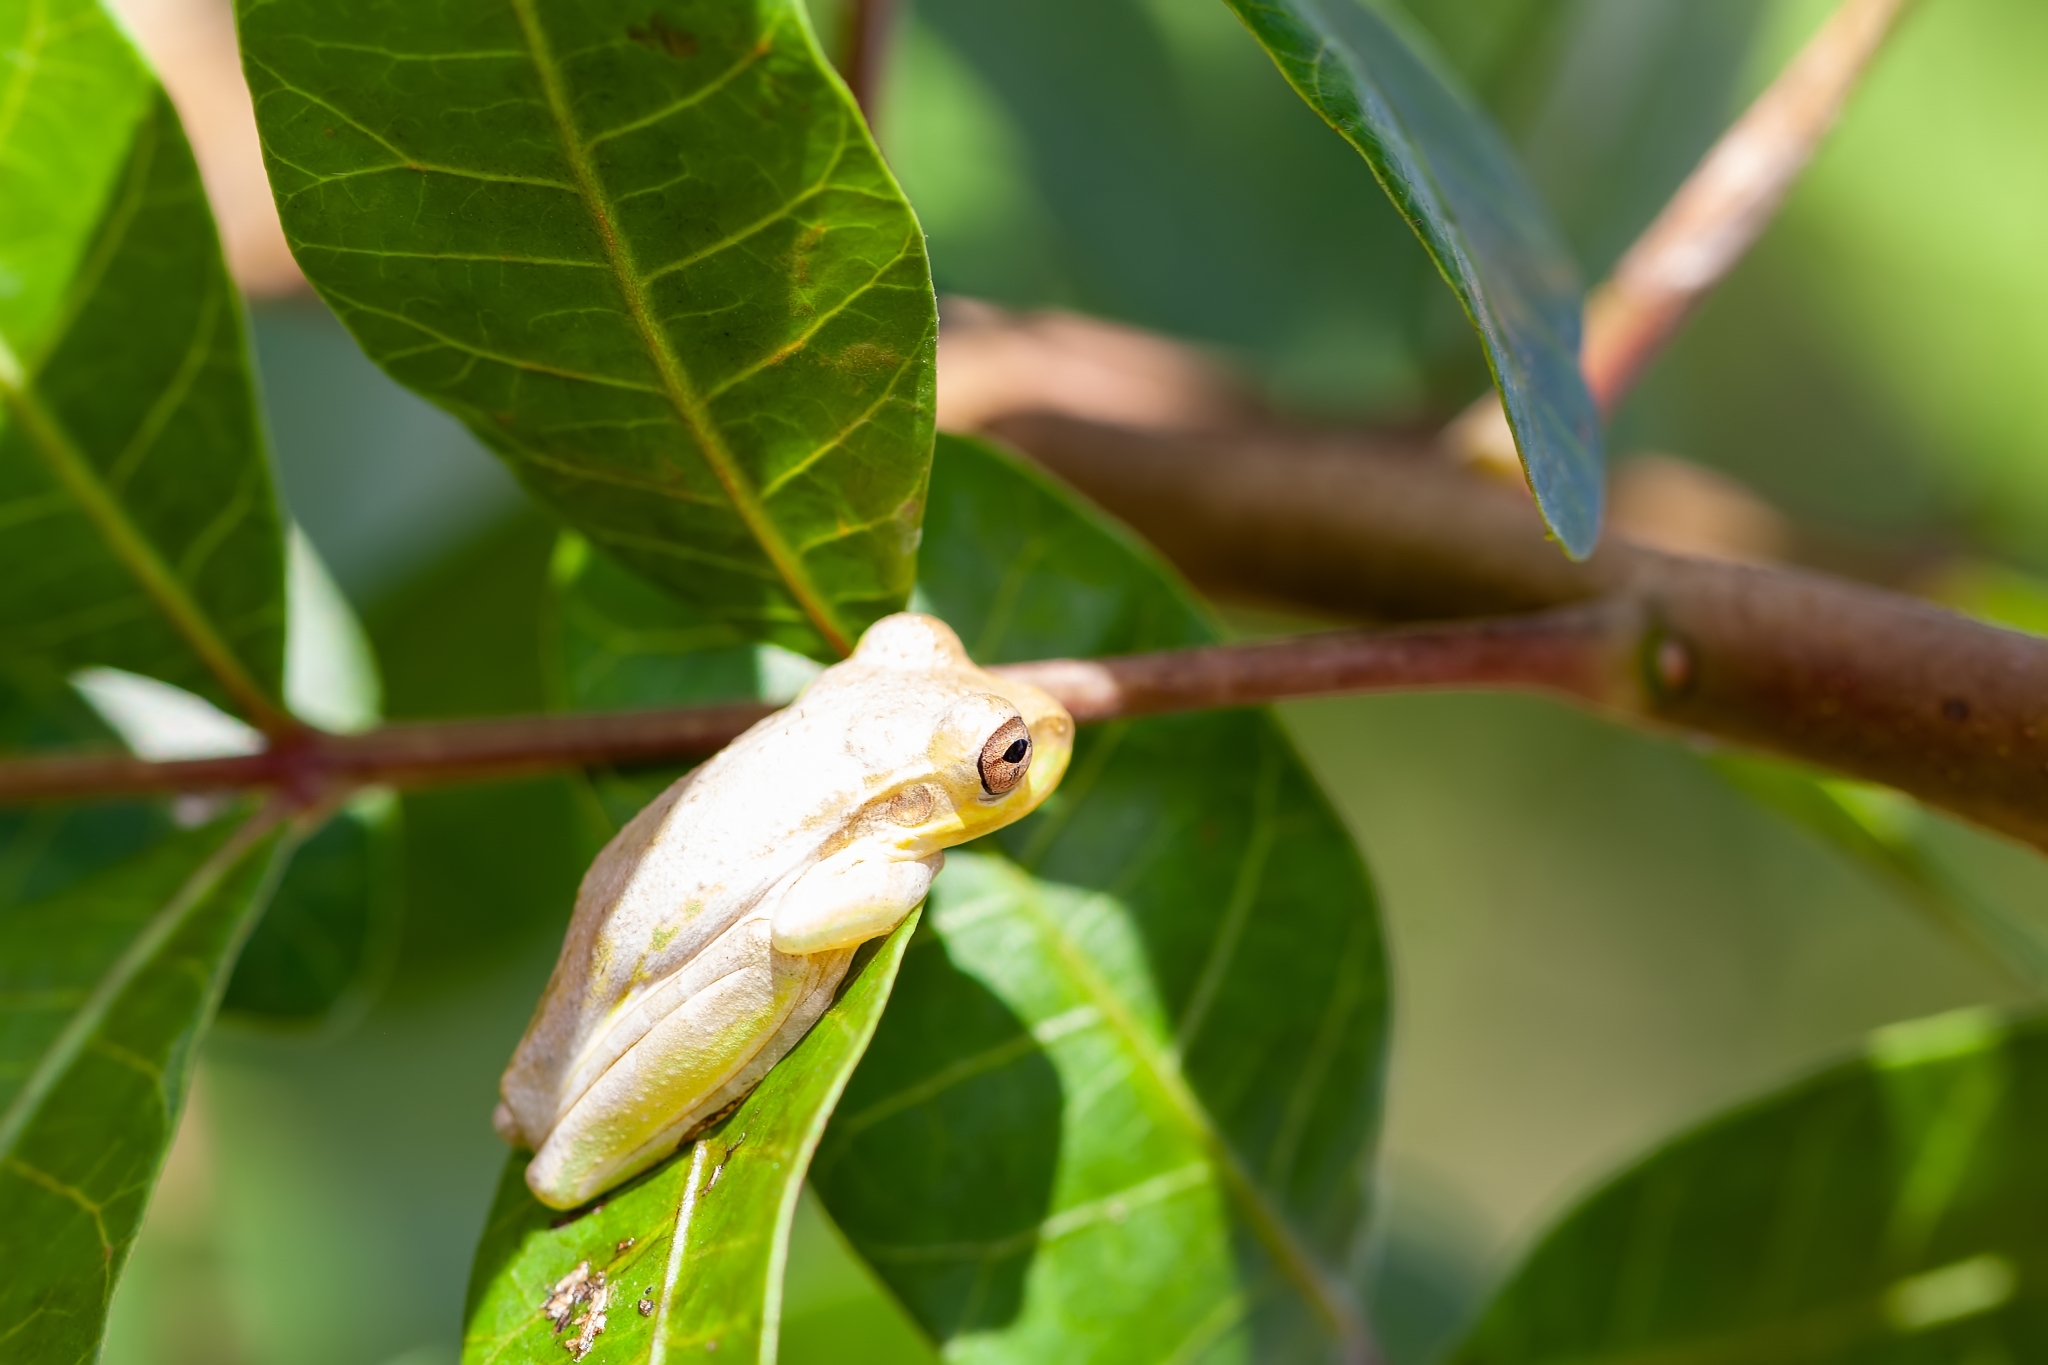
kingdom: Animalia
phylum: Chordata
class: Amphibia
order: Anura
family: Hylidae
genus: Osteopilus
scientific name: Osteopilus septentrionalis
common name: Cuban treefrog
